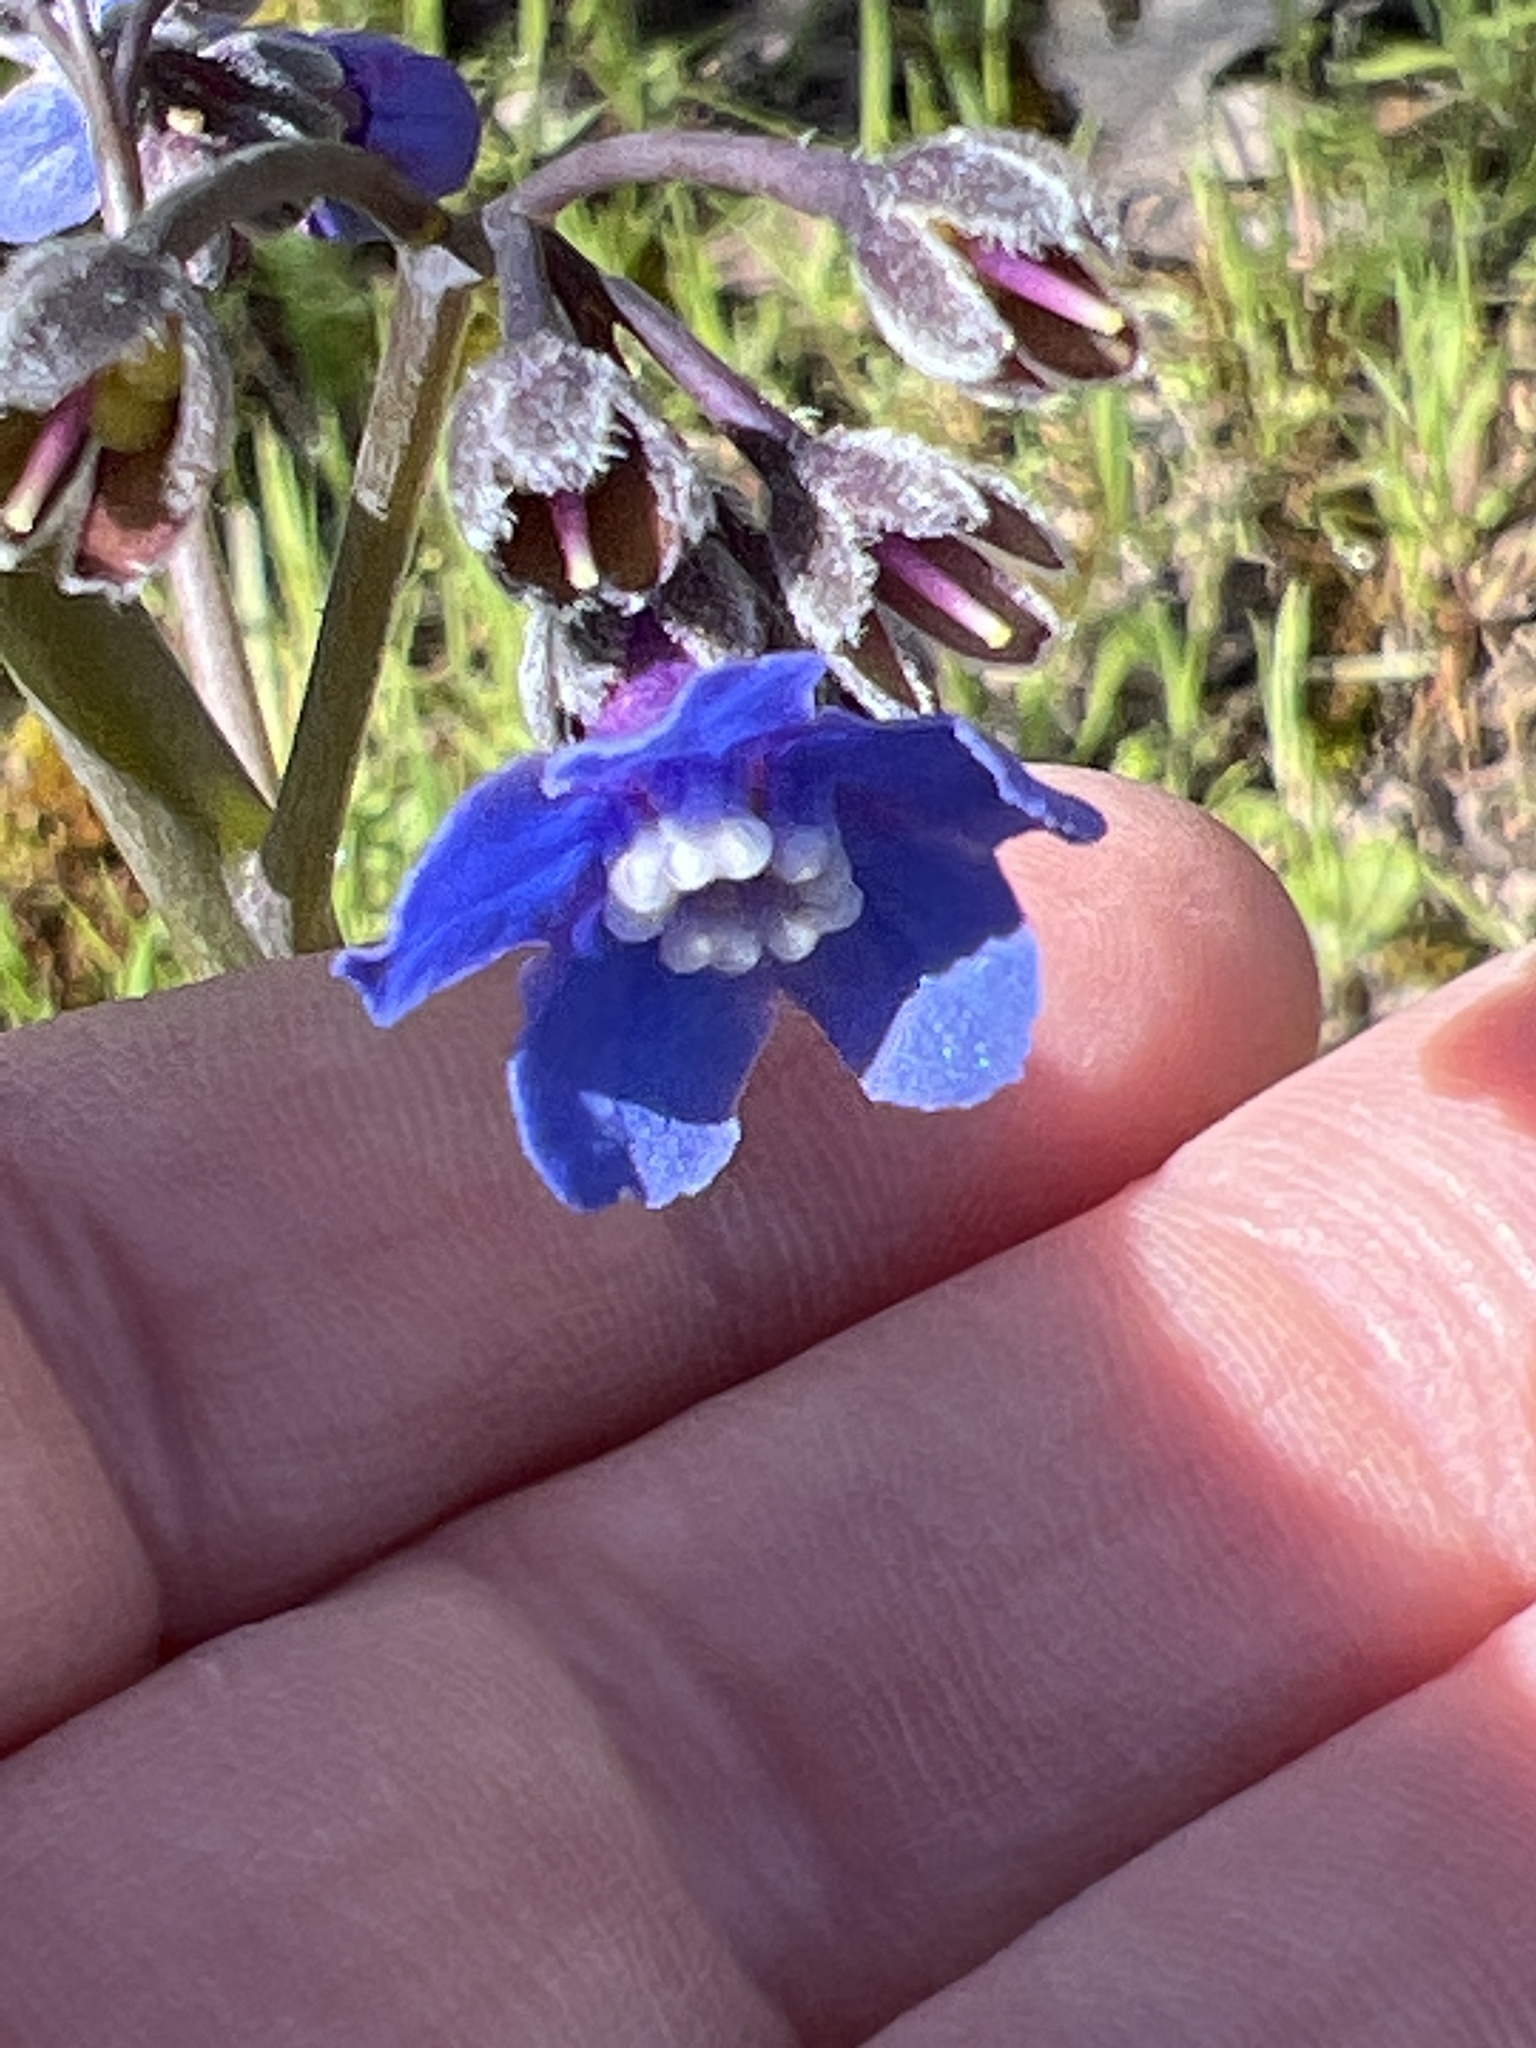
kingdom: Plantae
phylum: Tracheophyta
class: Magnoliopsida
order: Boraginales
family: Boraginaceae
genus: Adelinia
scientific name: Adelinia grande
